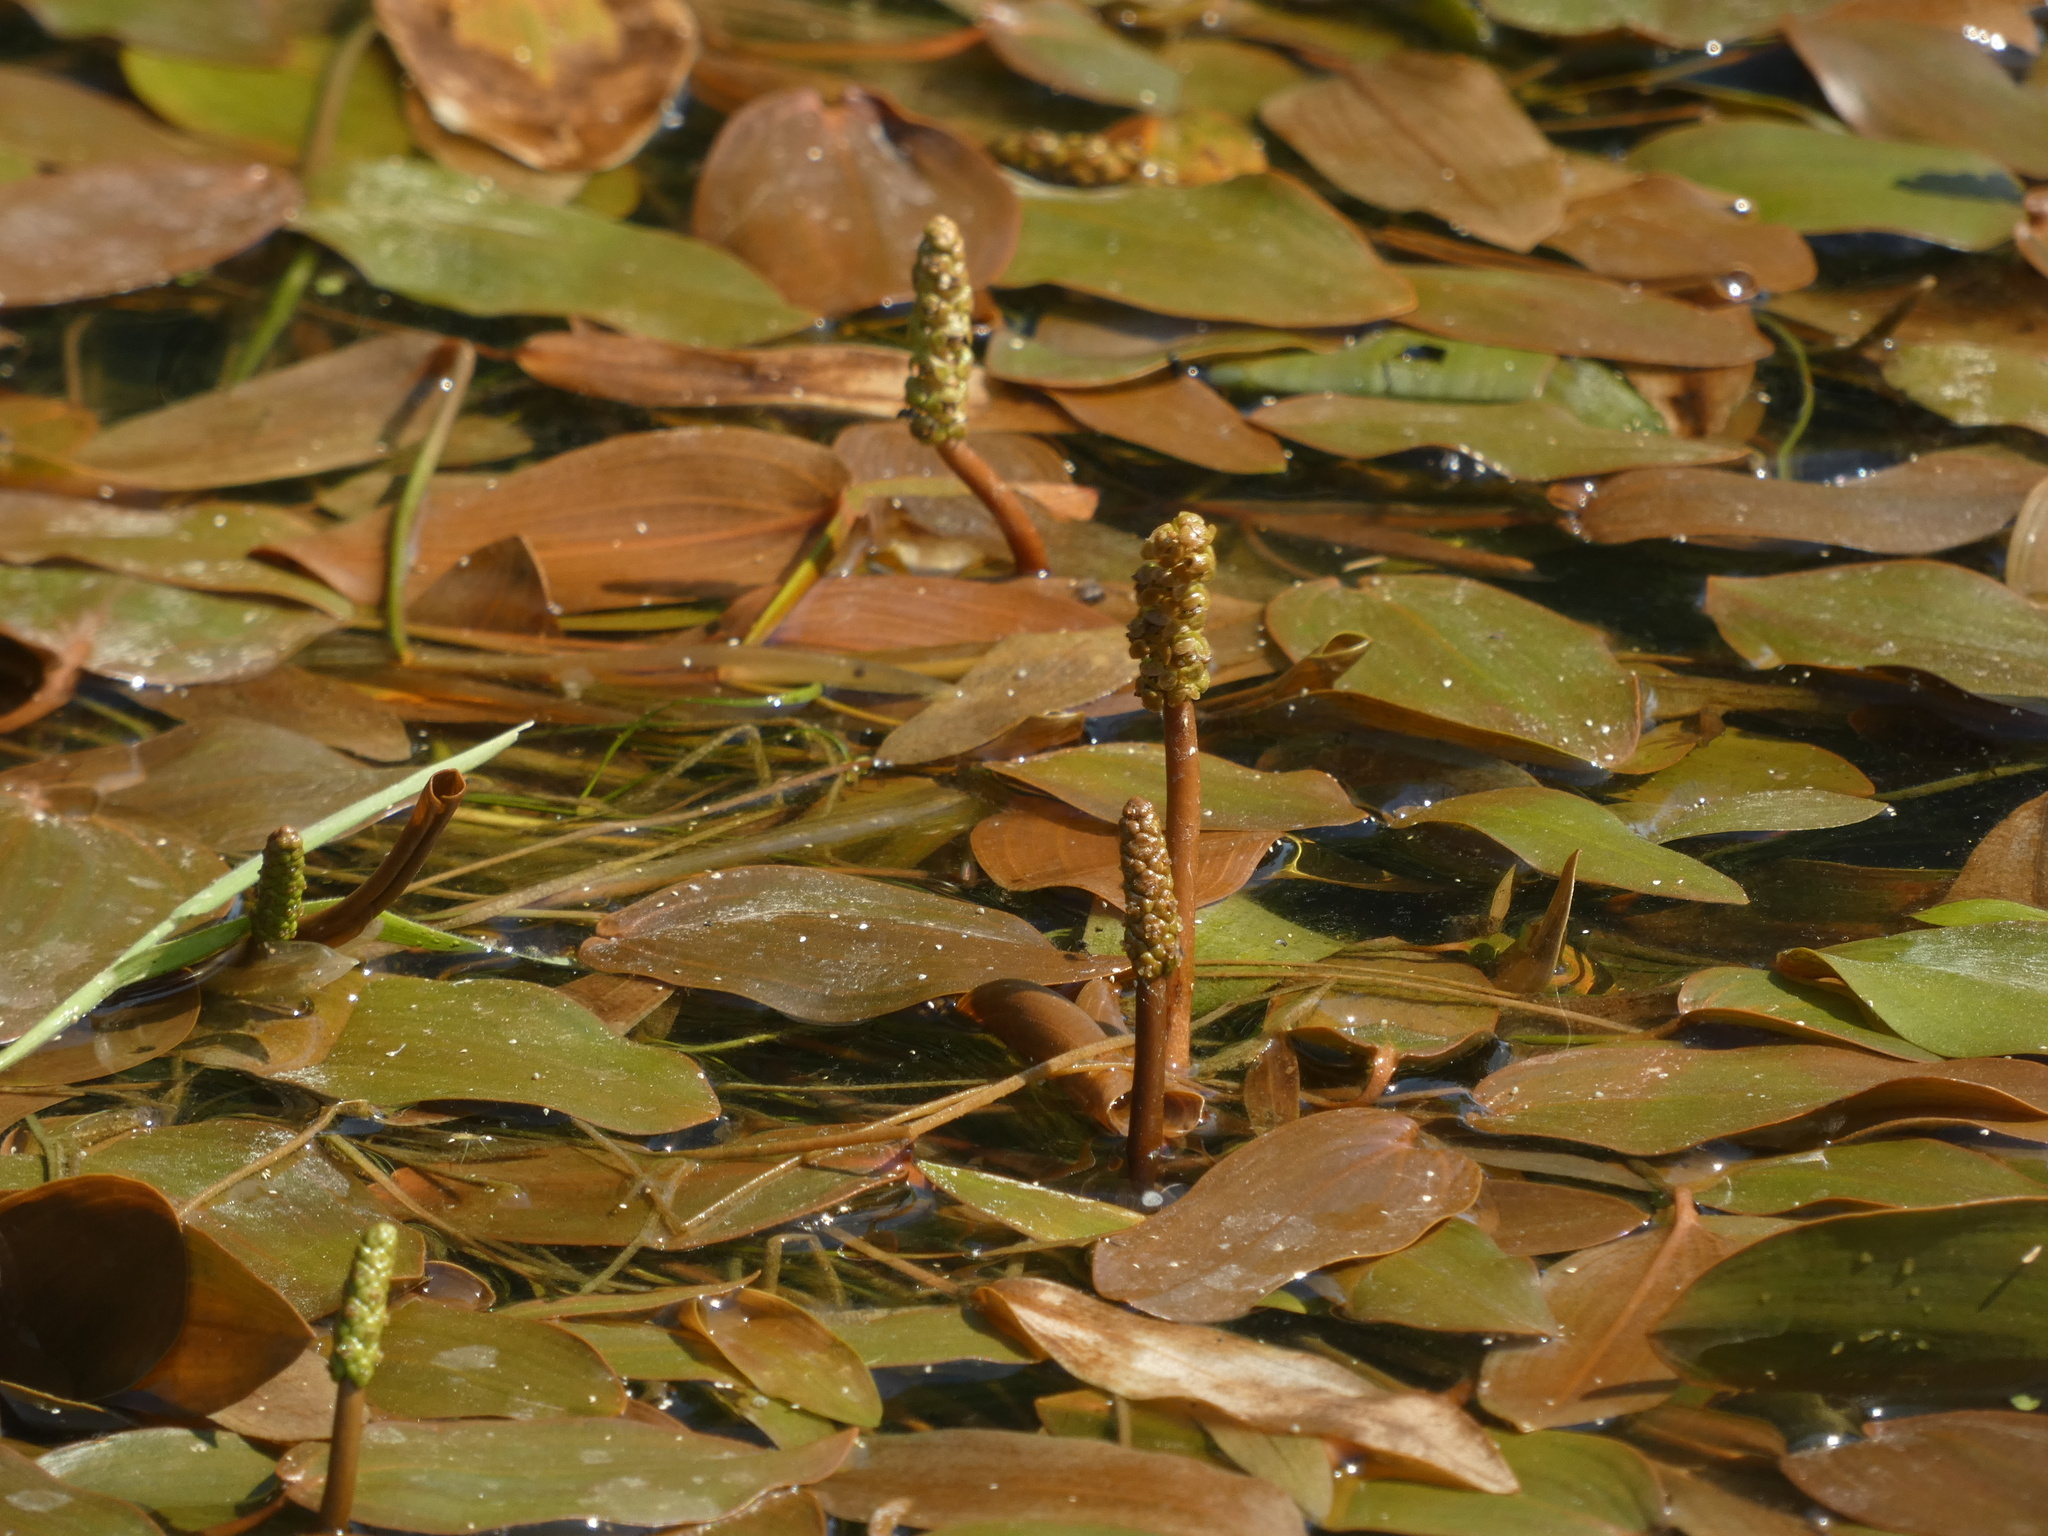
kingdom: Plantae
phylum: Tracheophyta
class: Liliopsida
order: Alismatales
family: Potamogetonaceae
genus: Potamogeton
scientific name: Potamogeton natans
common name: Broad-leaved pondweed
